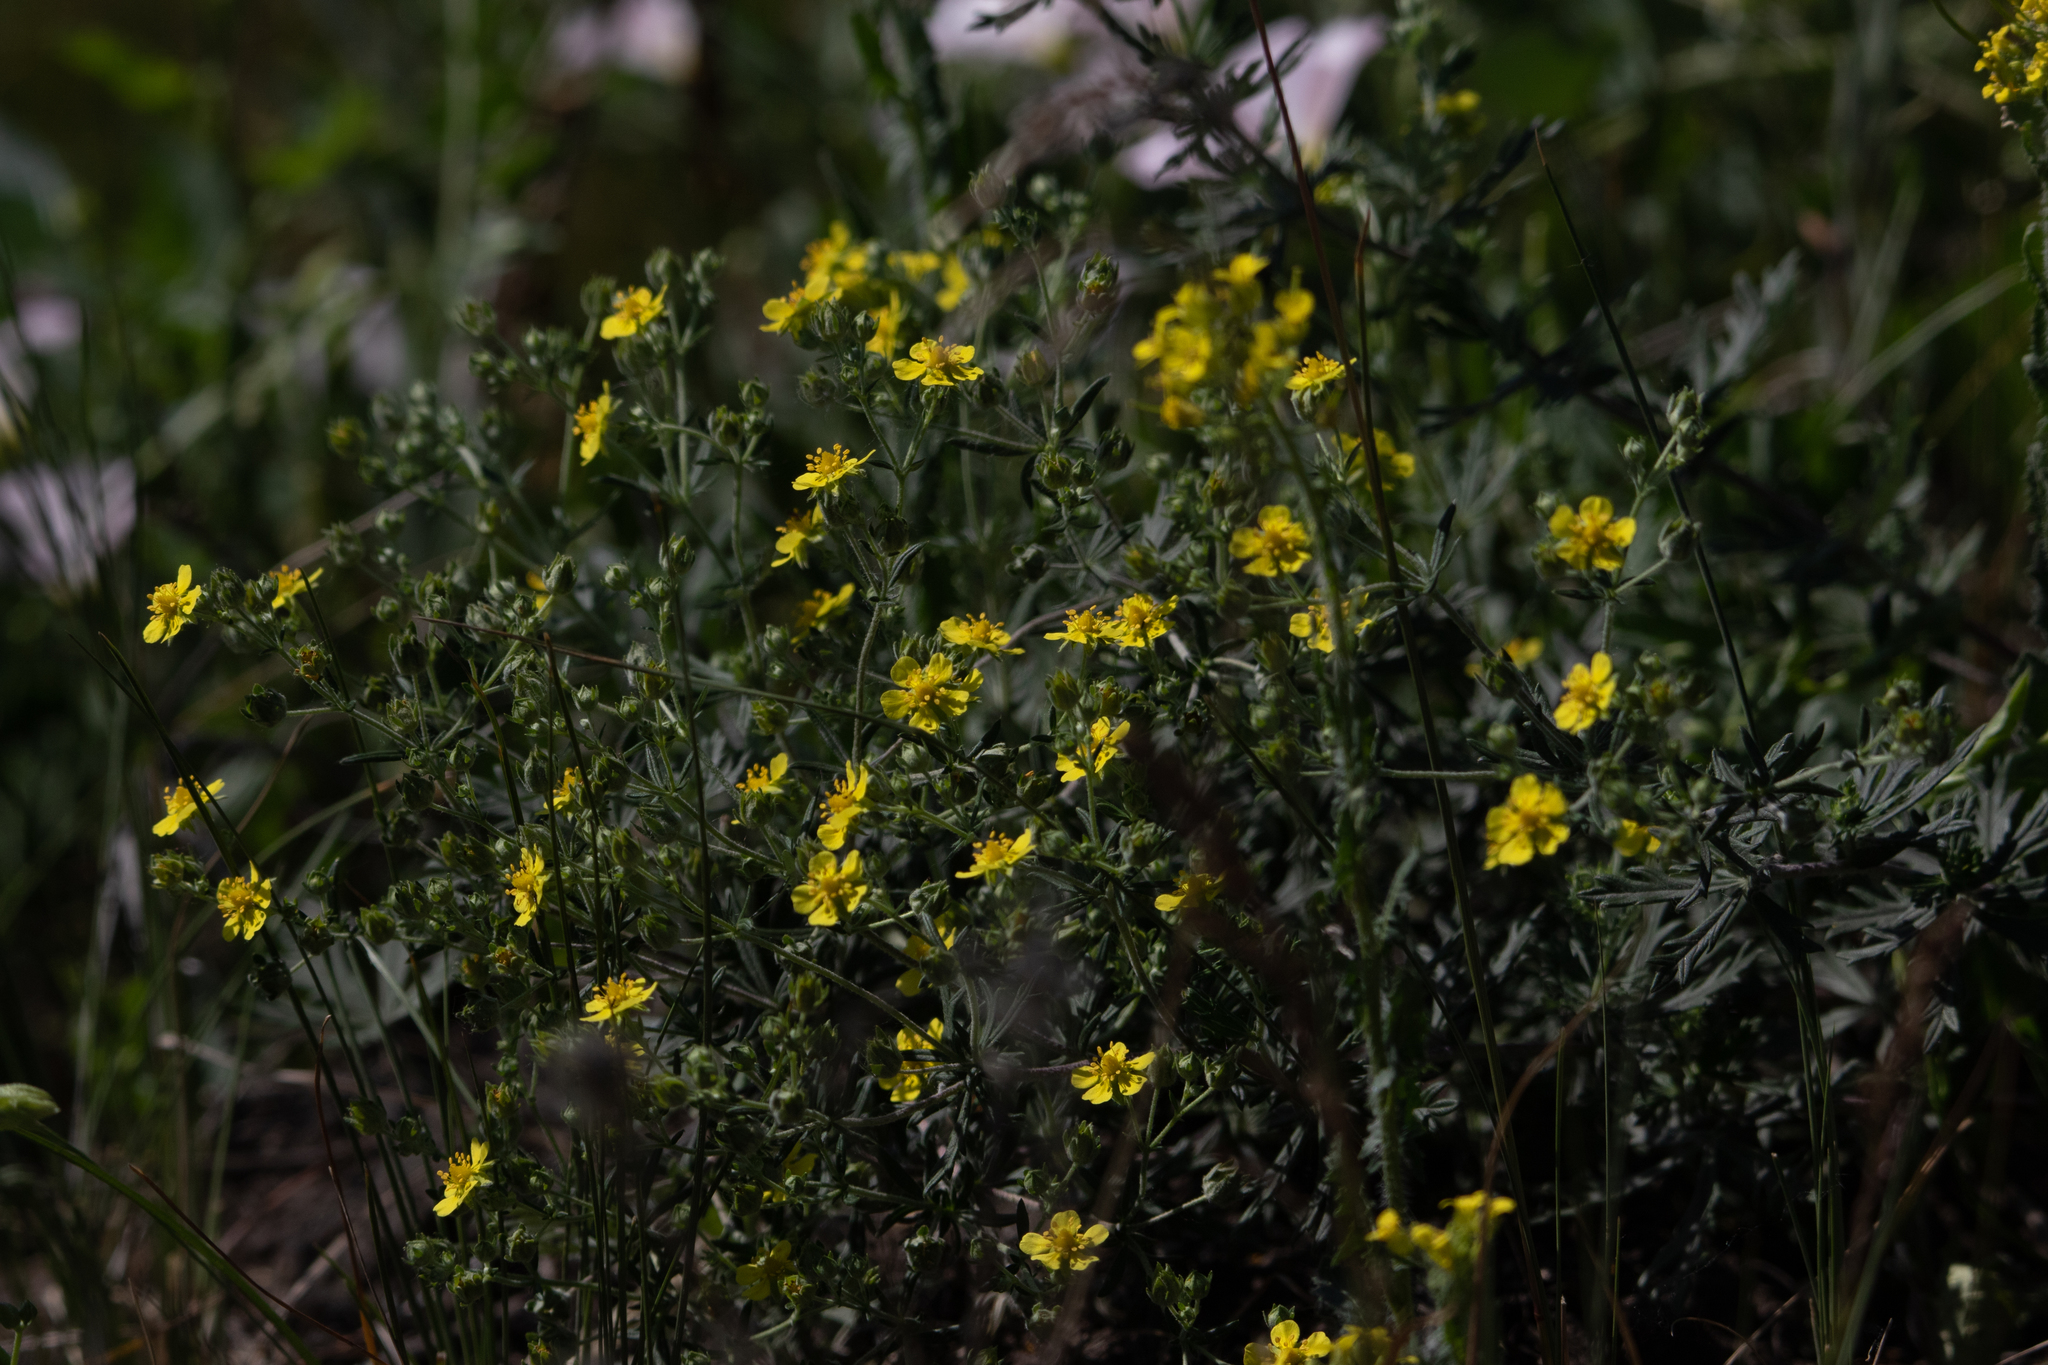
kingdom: Plantae
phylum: Tracheophyta
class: Magnoliopsida
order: Rosales
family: Rosaceae
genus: Potentilla
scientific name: Potentilla argentea
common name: Hoary cinquefoil
